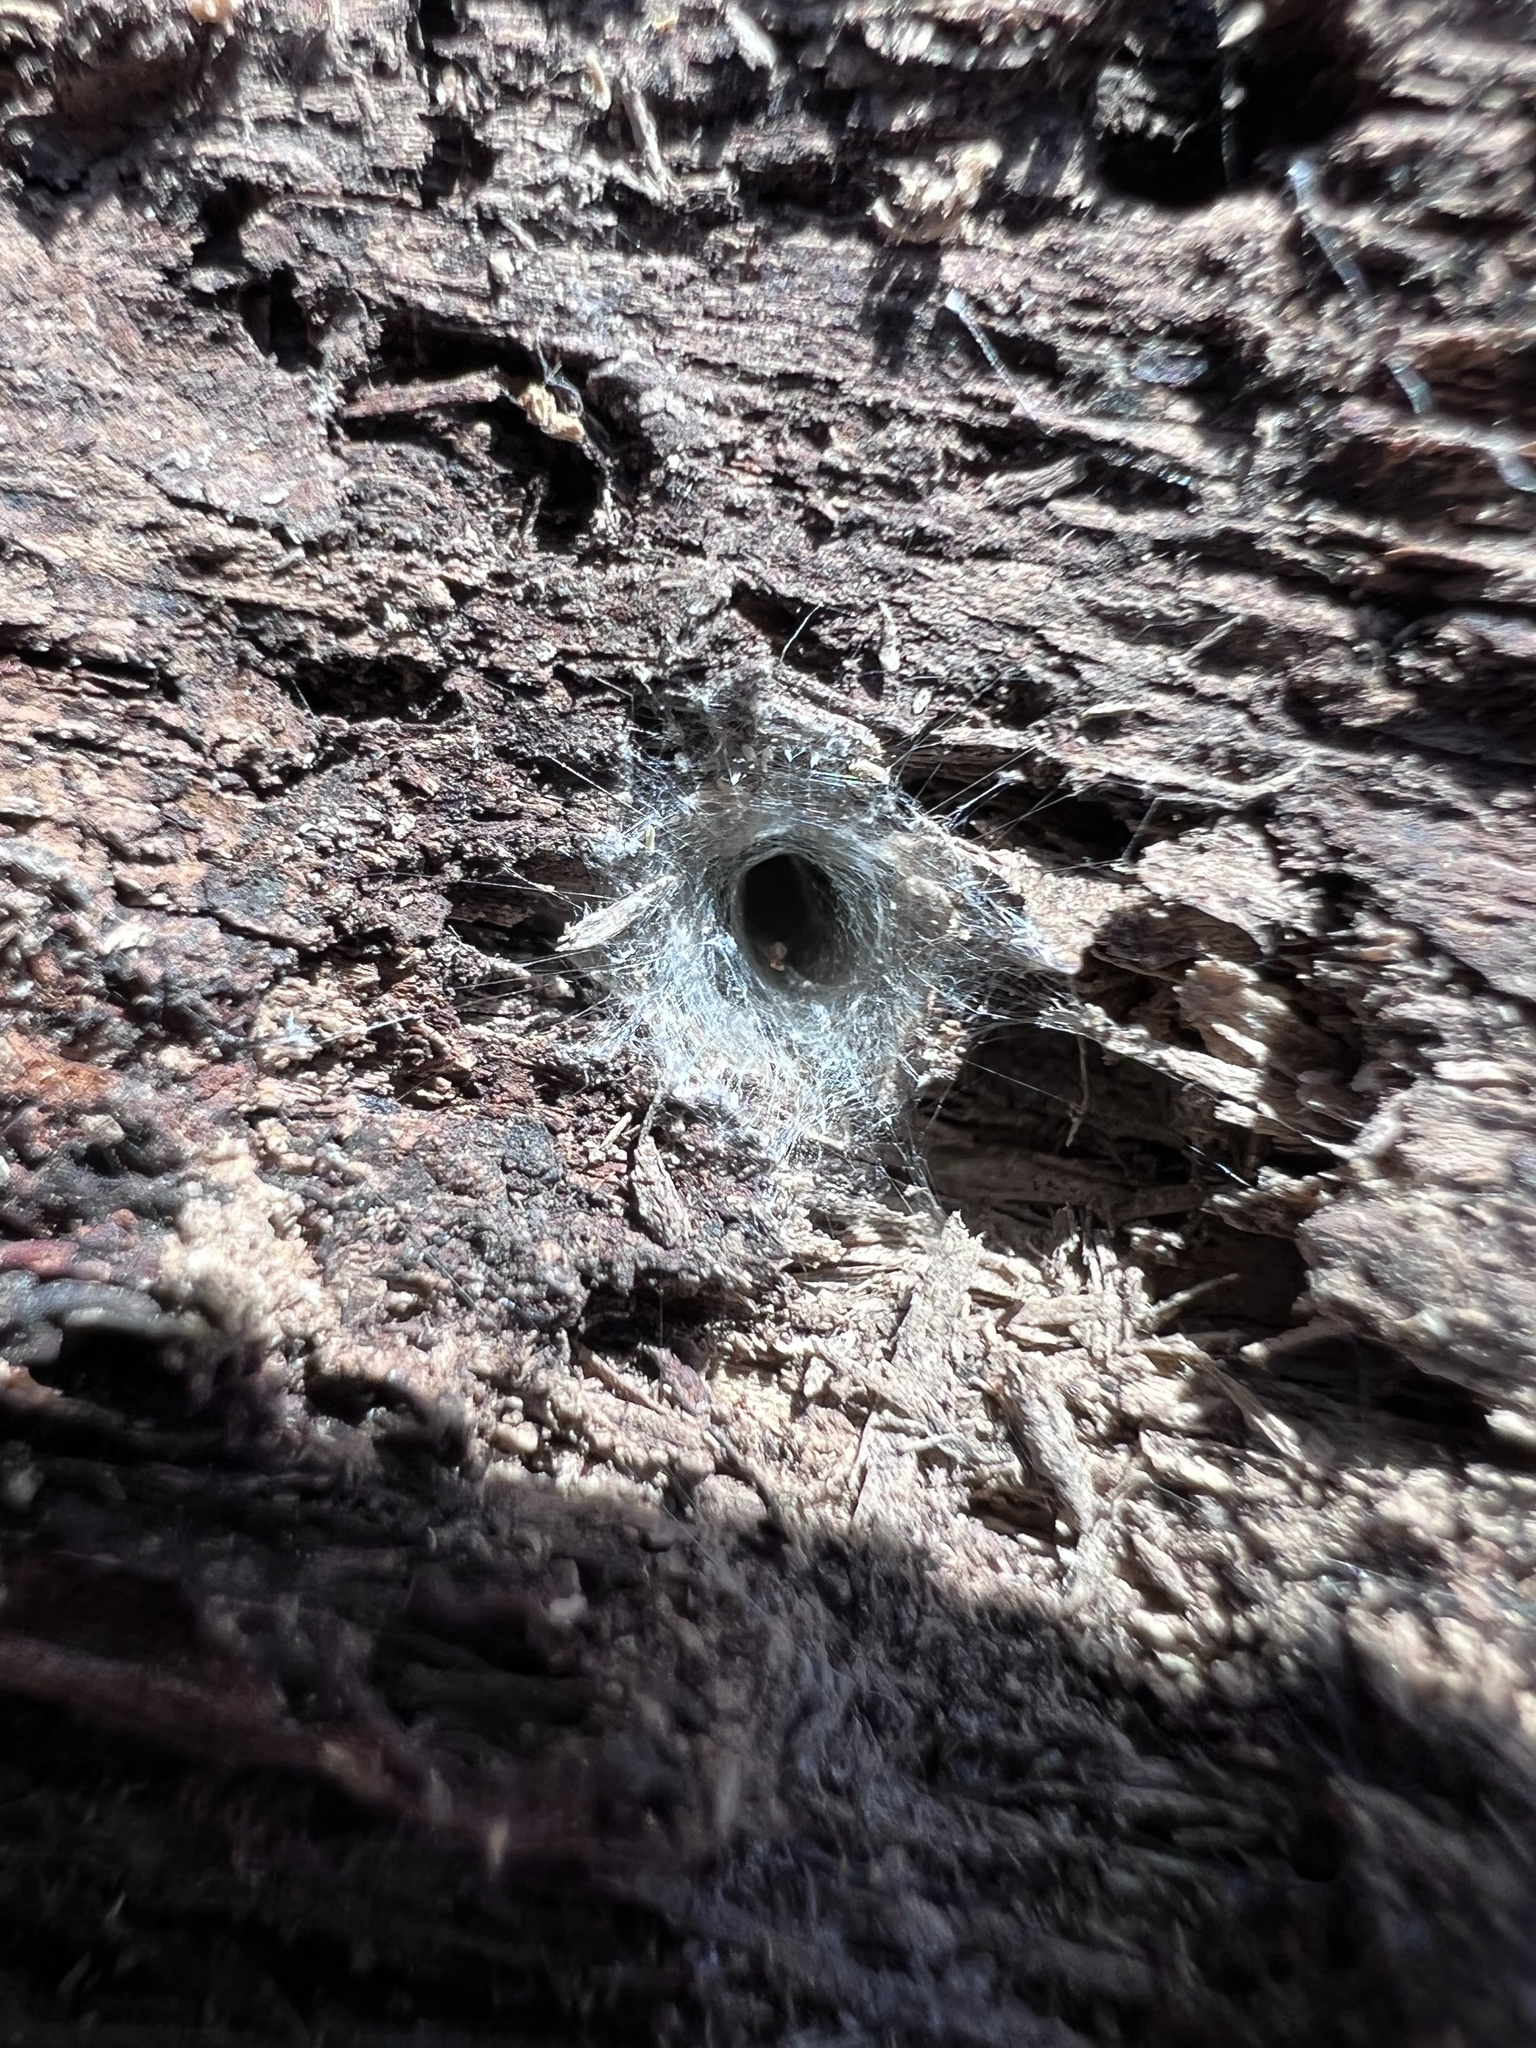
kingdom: Animalia
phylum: Arthropoda
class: Arachnida
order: Araneae
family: Segestriidae
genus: Ariadna
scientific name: Ariadna bicolor
